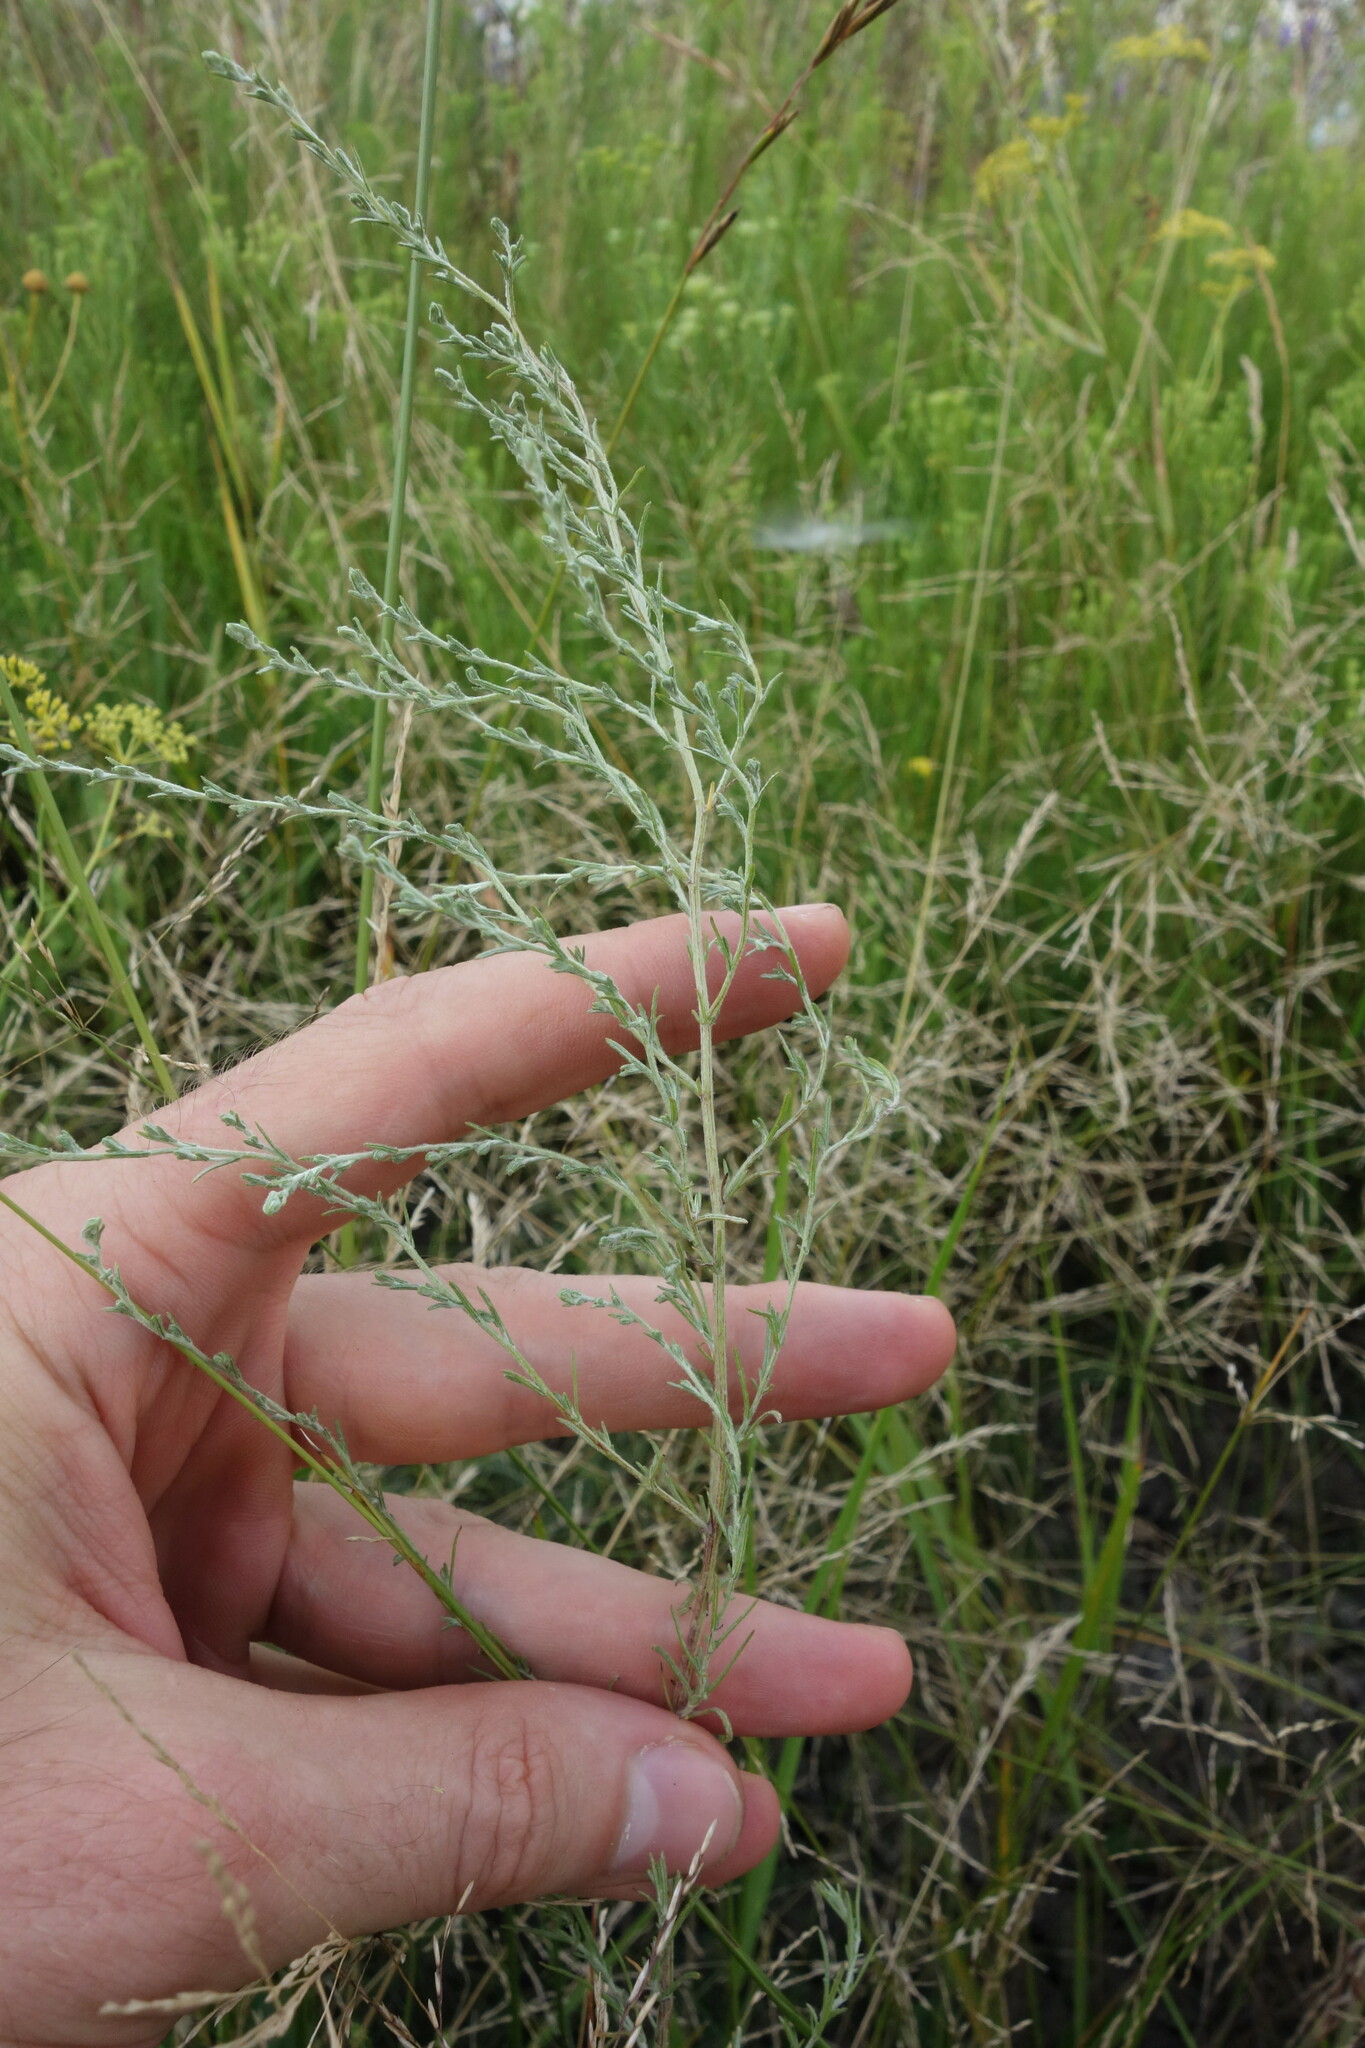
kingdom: Plantae
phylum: Tracheophyta
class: Magnoliopsida
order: Asterales
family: Asteraceae
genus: Artemisia
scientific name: Artemisia santonicum
